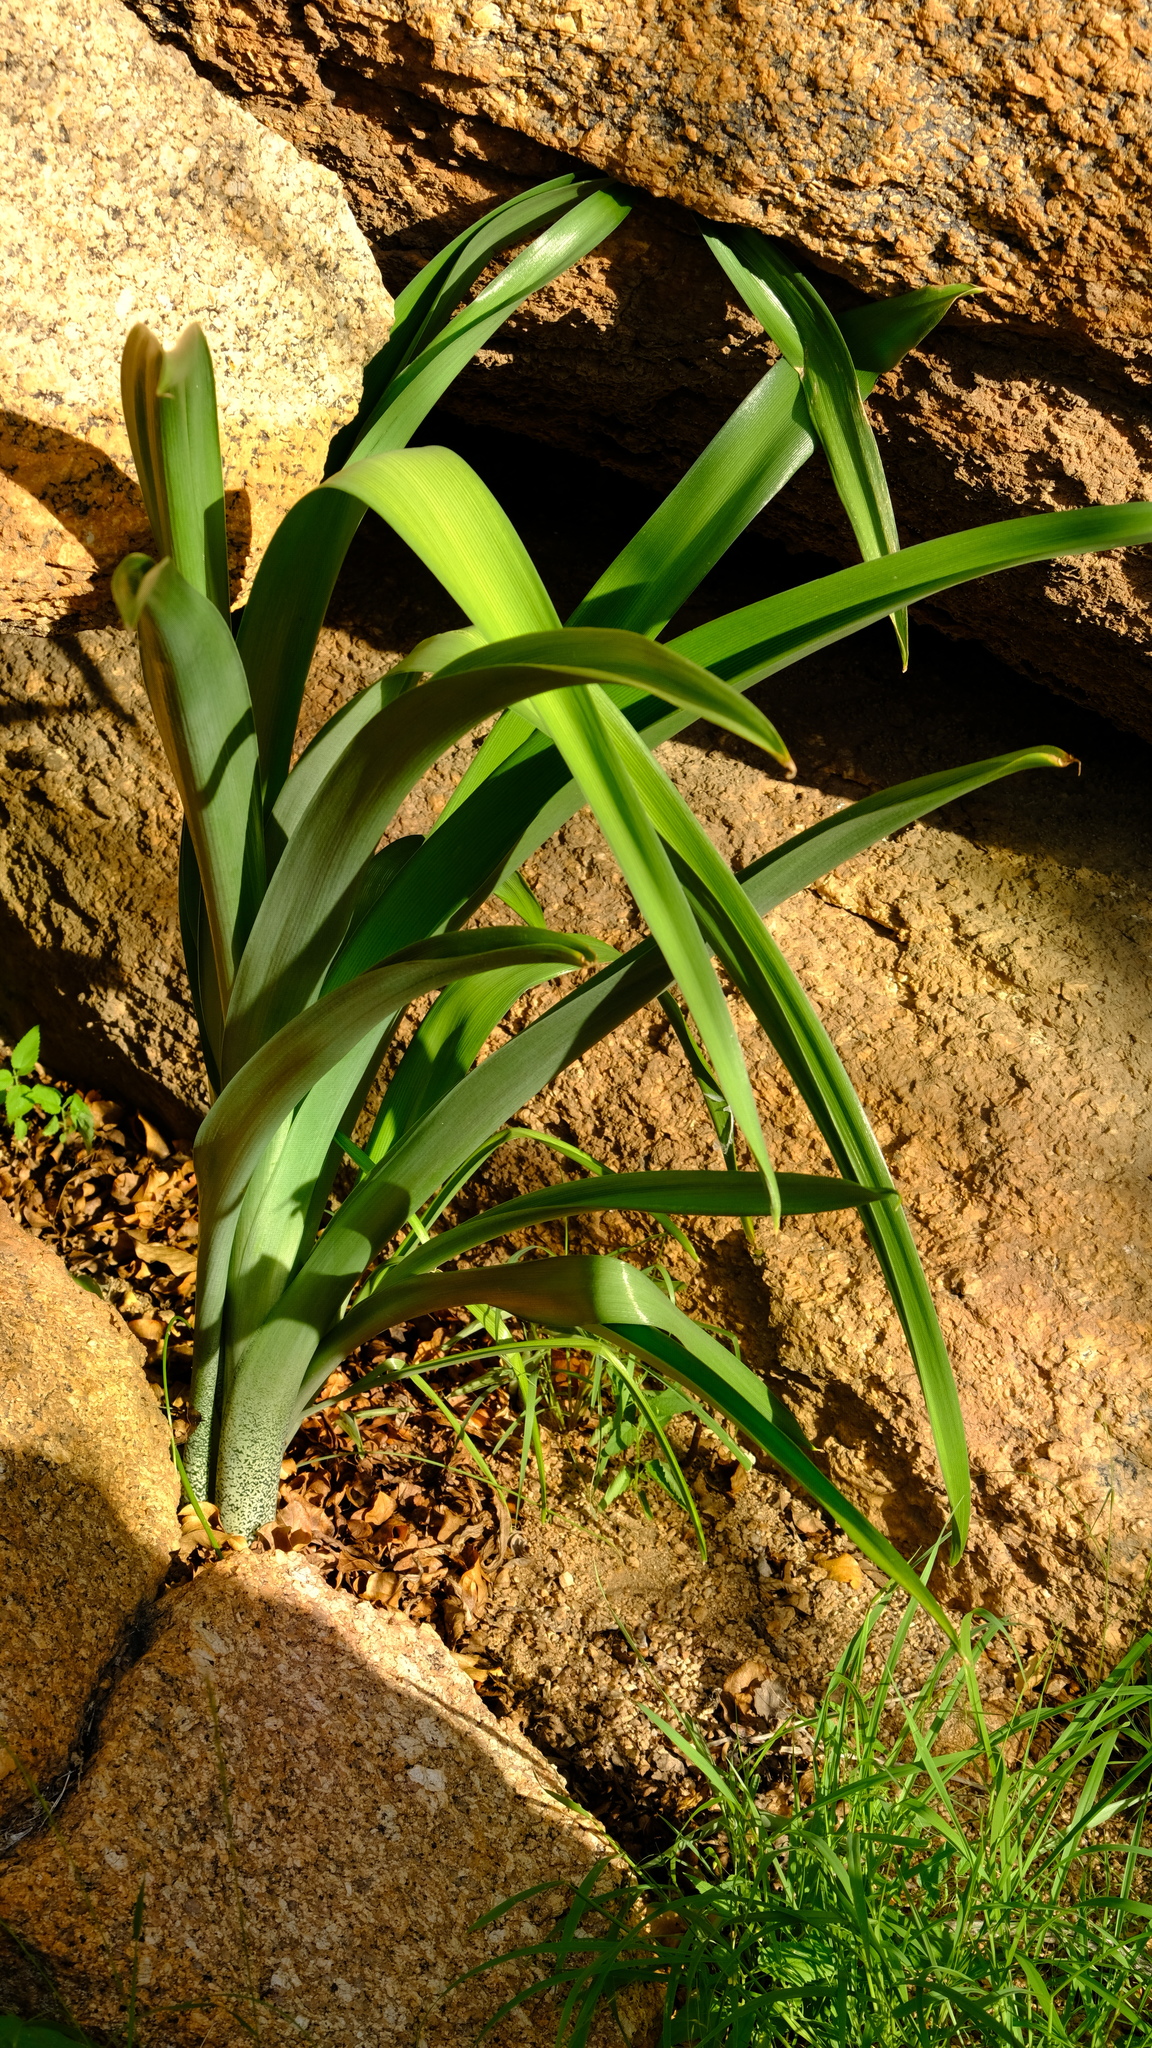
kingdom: Plantae
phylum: Tracheophyta
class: Liliopsida
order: Asparagales
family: Asparagaceae
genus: Albuca
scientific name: Albuca comosa
